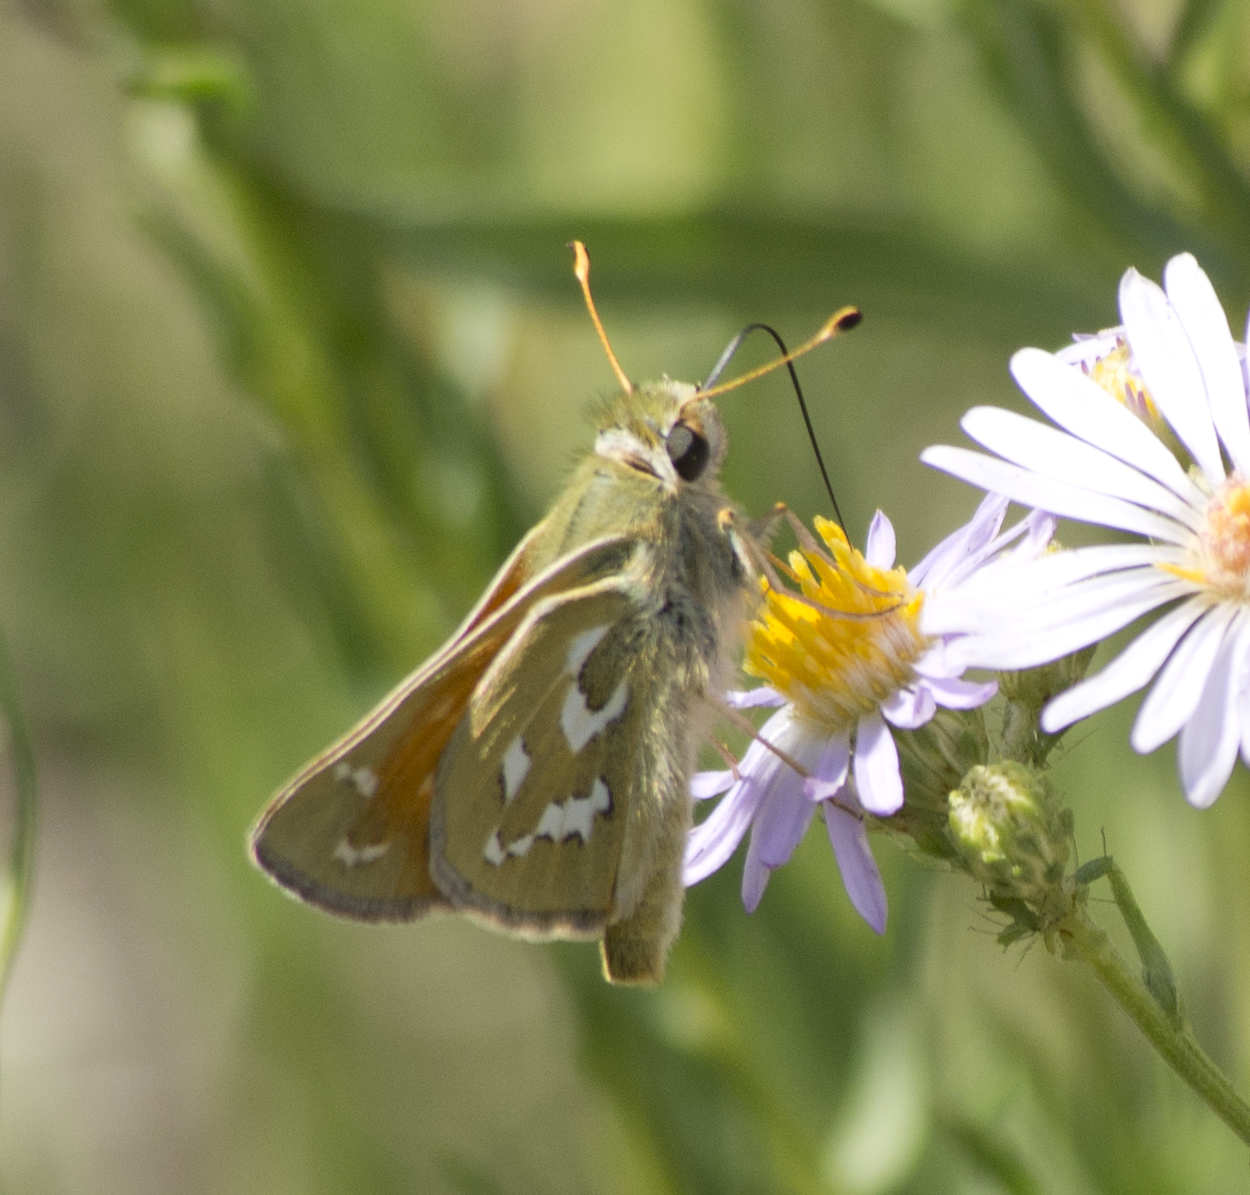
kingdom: Animalia
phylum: Arthropoda
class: Insecta
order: Lepidoptera
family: Hesperiidae
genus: Hesperia
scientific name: Hesperia comma
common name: Common branded skipper
